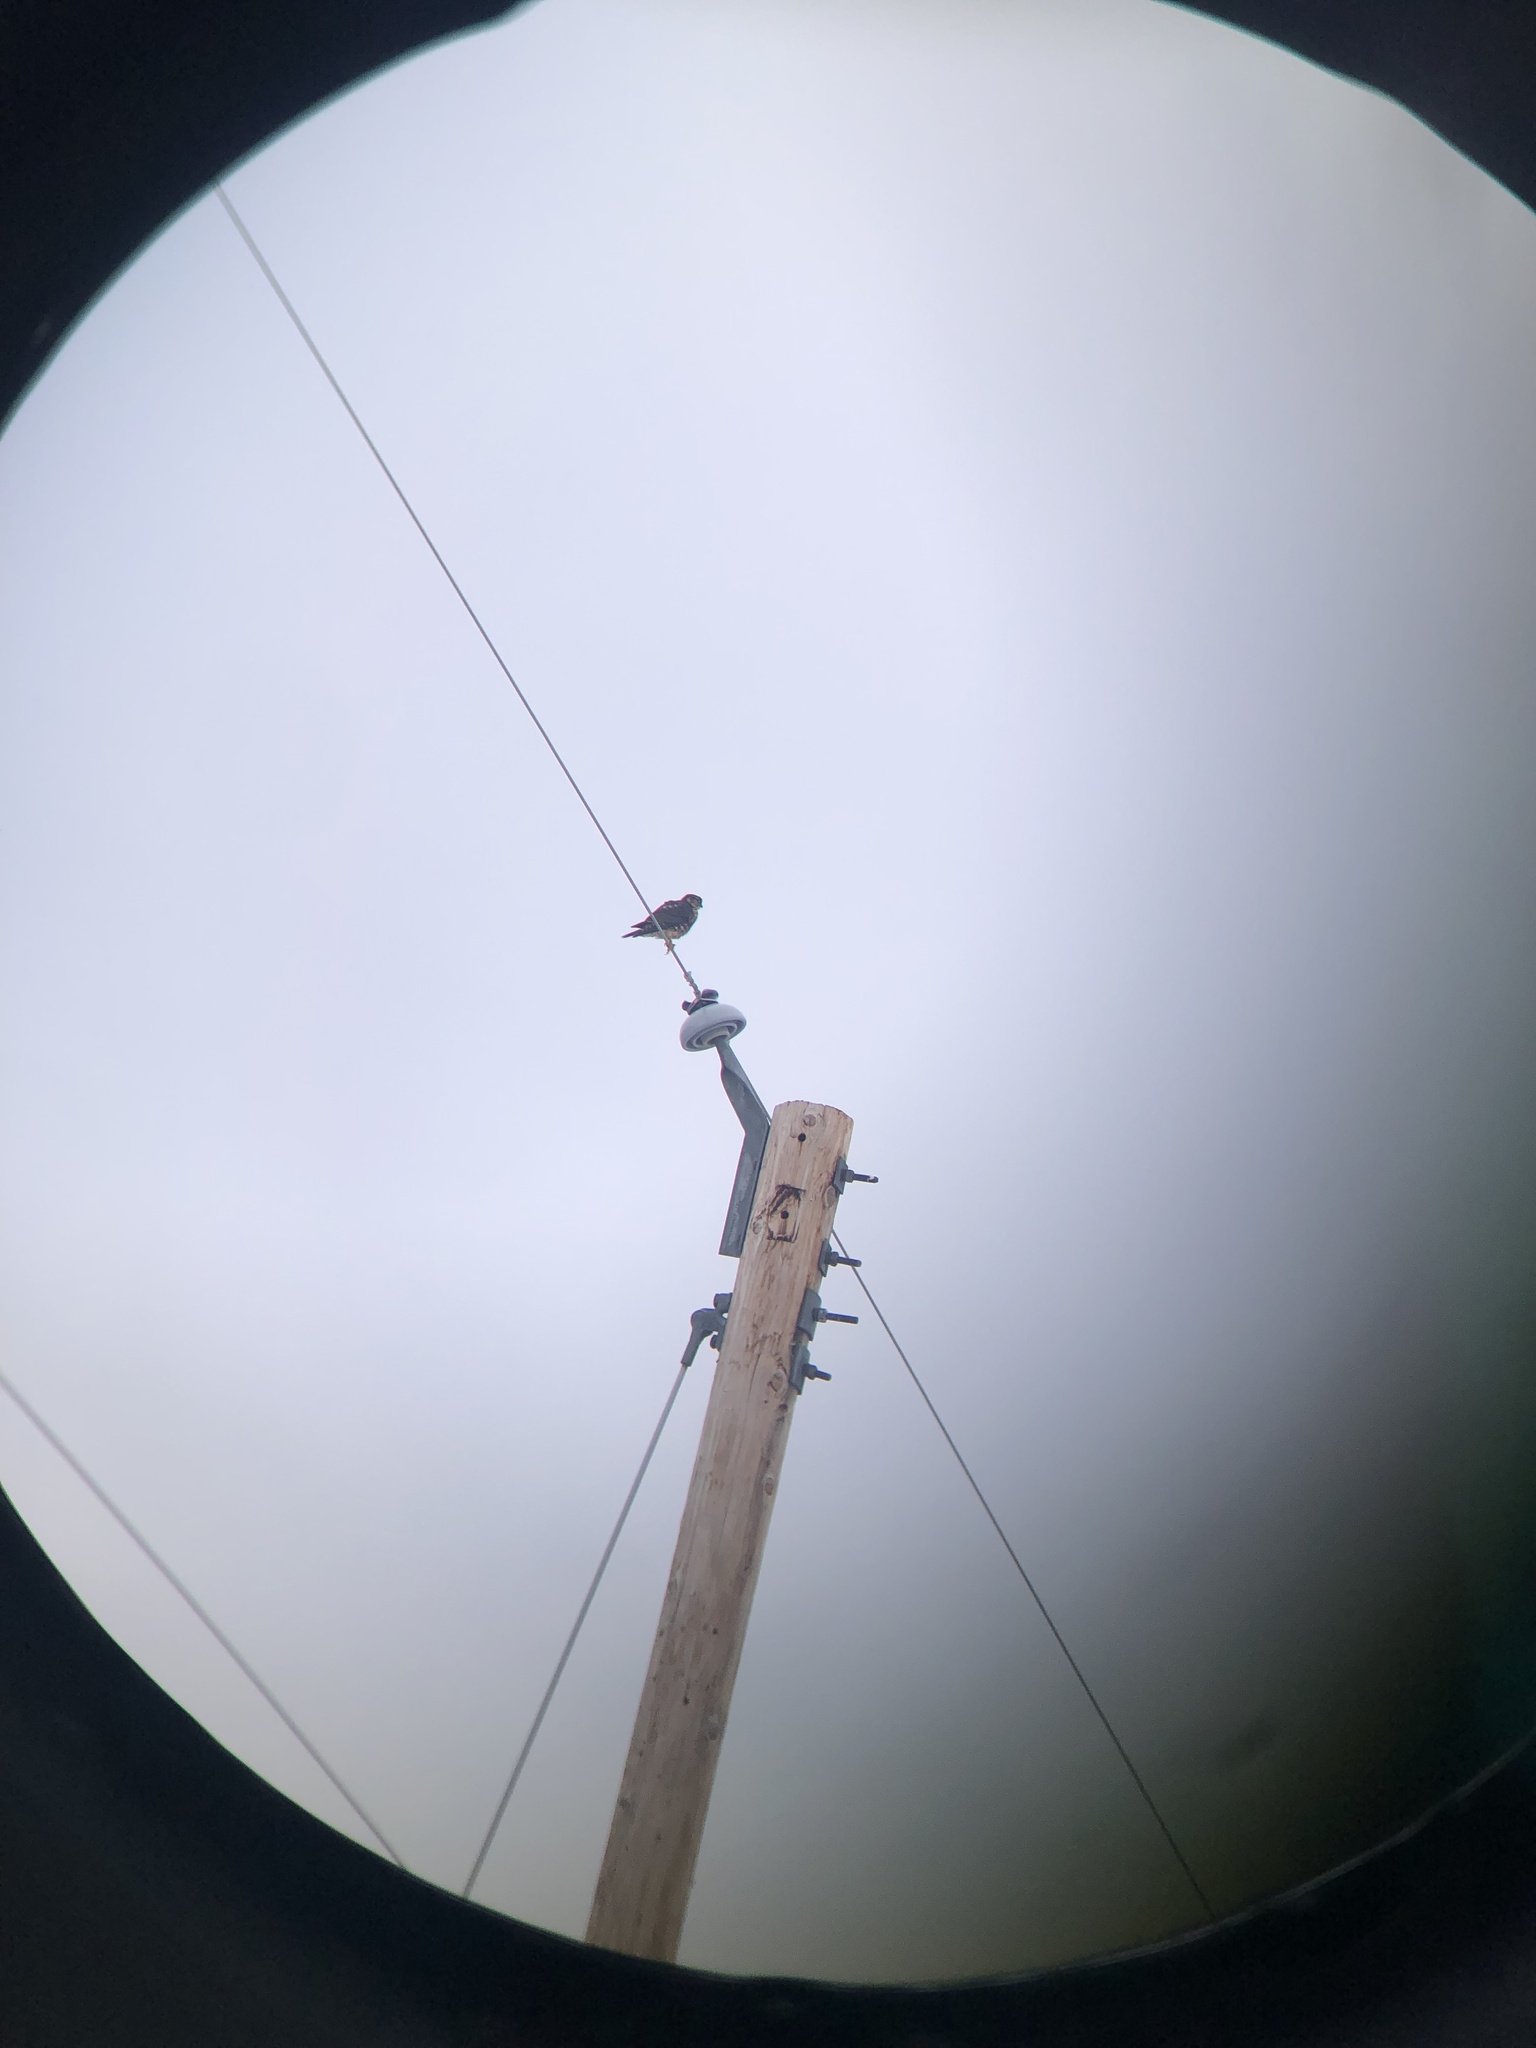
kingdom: Animalia
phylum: Chordata
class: Aves
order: Falconiformes
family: Falconidae
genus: Falco
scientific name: Falco columbarius
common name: Merlin
